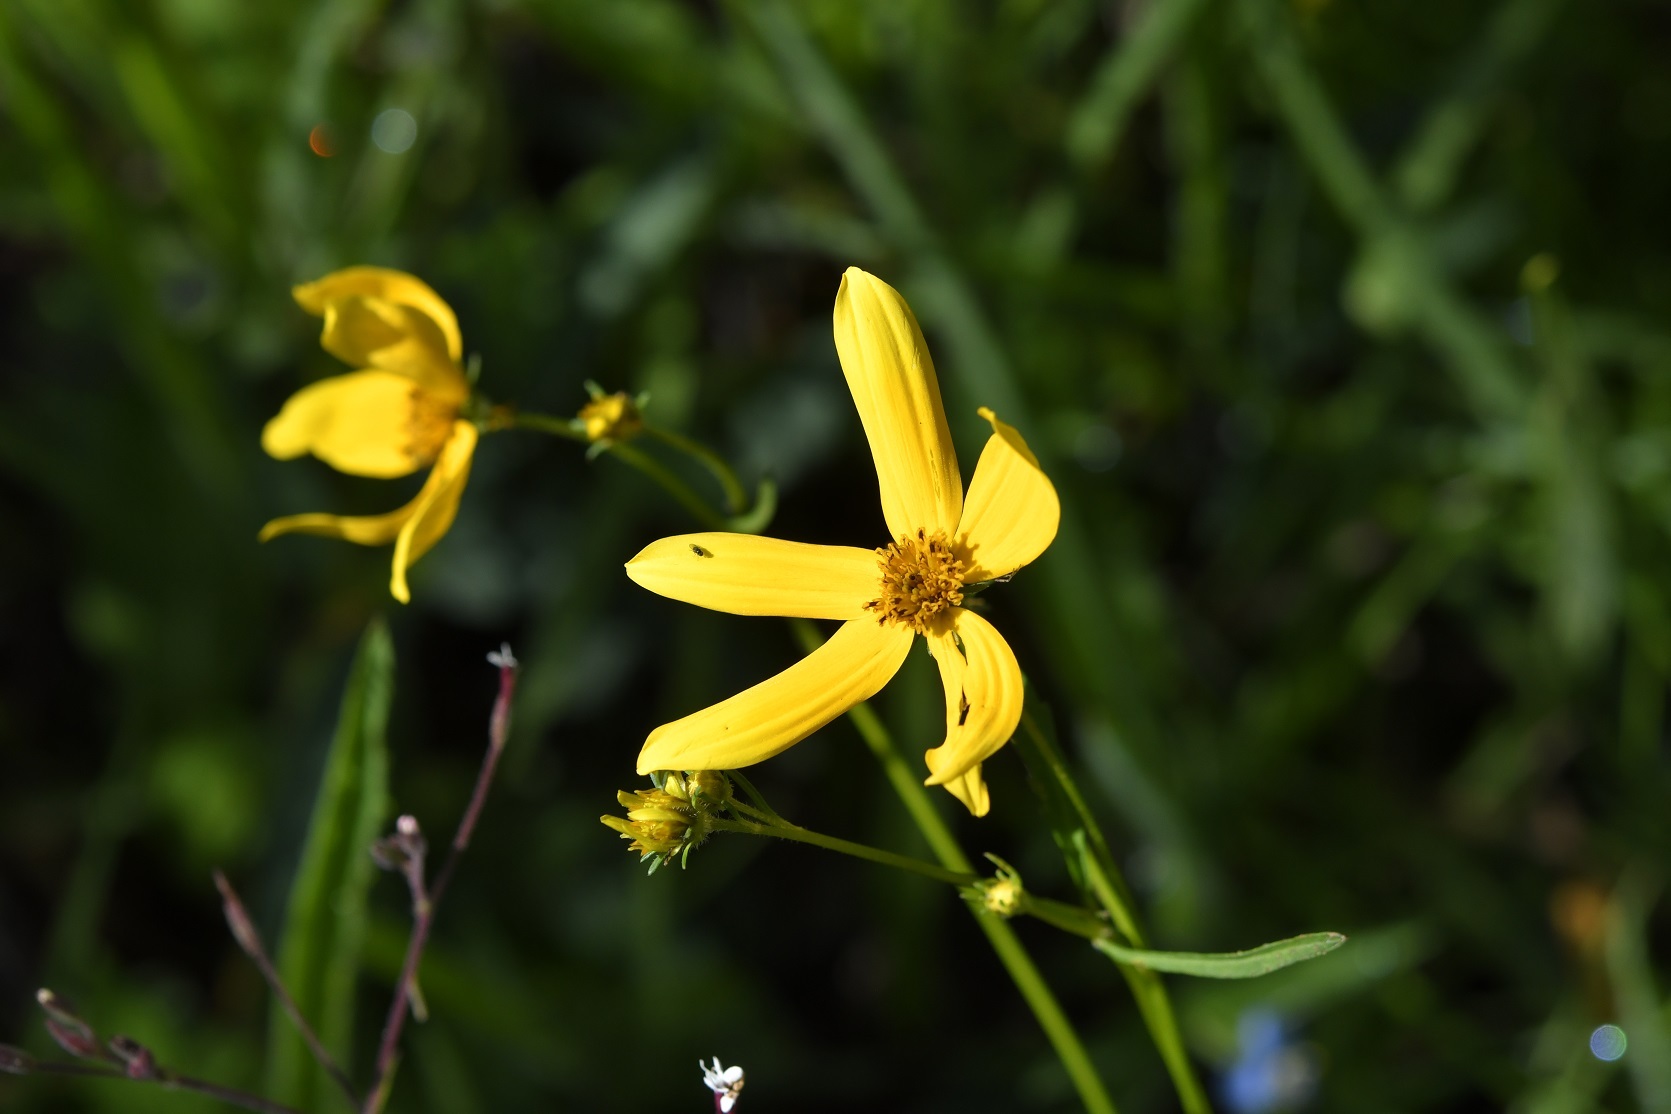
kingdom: Plantae
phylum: Tracheophyta
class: Magnoliopsida
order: Asterales
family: Asteraceae
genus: Bidens
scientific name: Bidens aurea
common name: Arizona beggar-ticks
